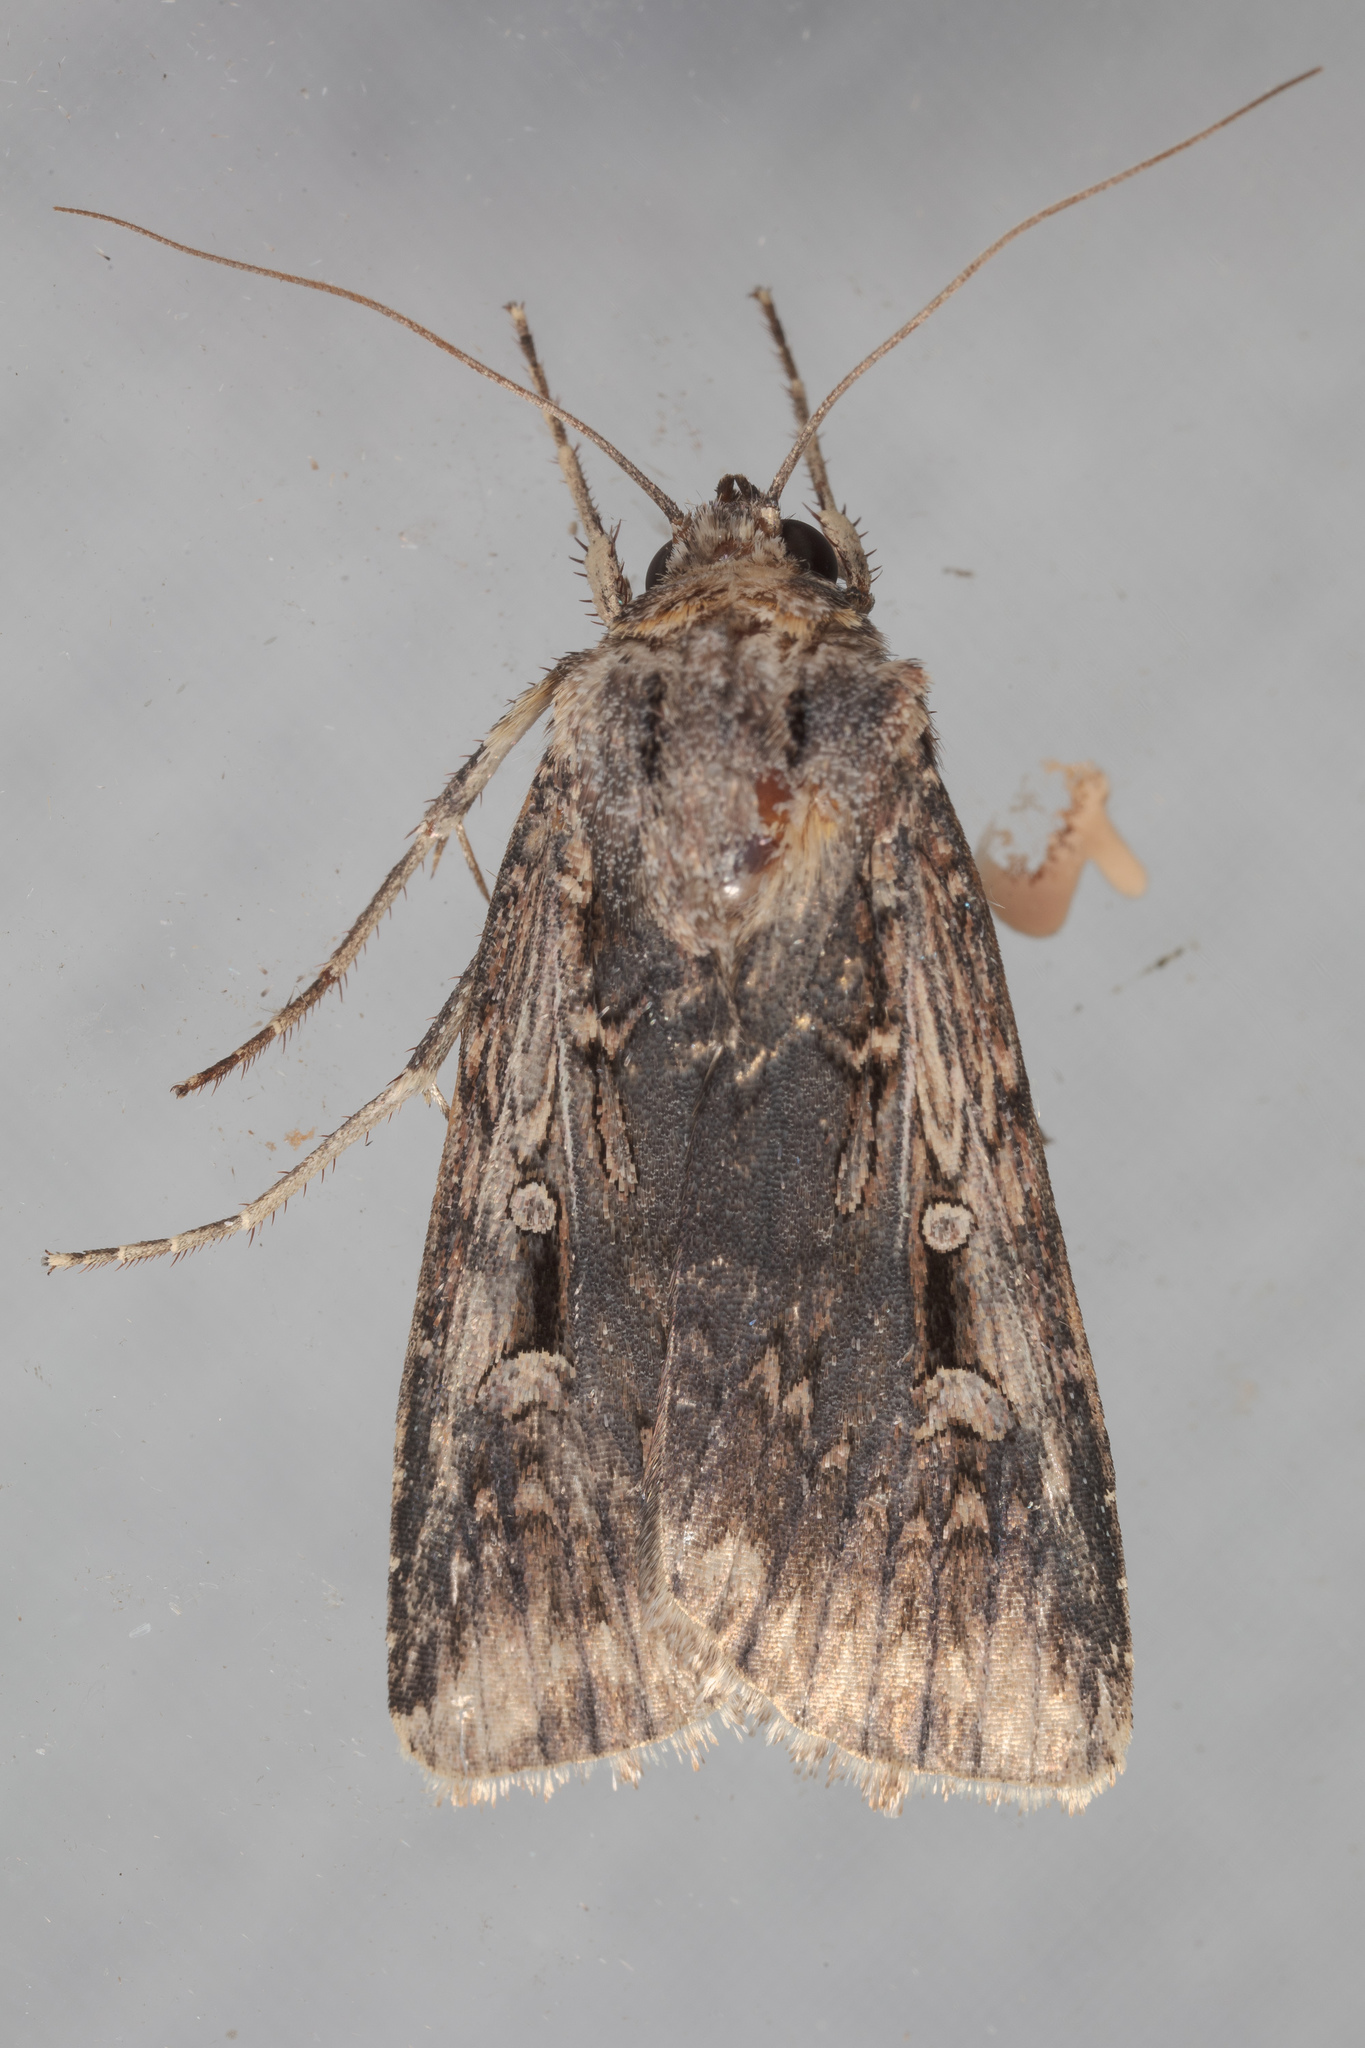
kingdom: Animalia
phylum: Arthropoda
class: Insecta
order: Lepidoptera
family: Noctuidae
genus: Feltia
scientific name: Feltia subterranea
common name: Granulate cutworm
